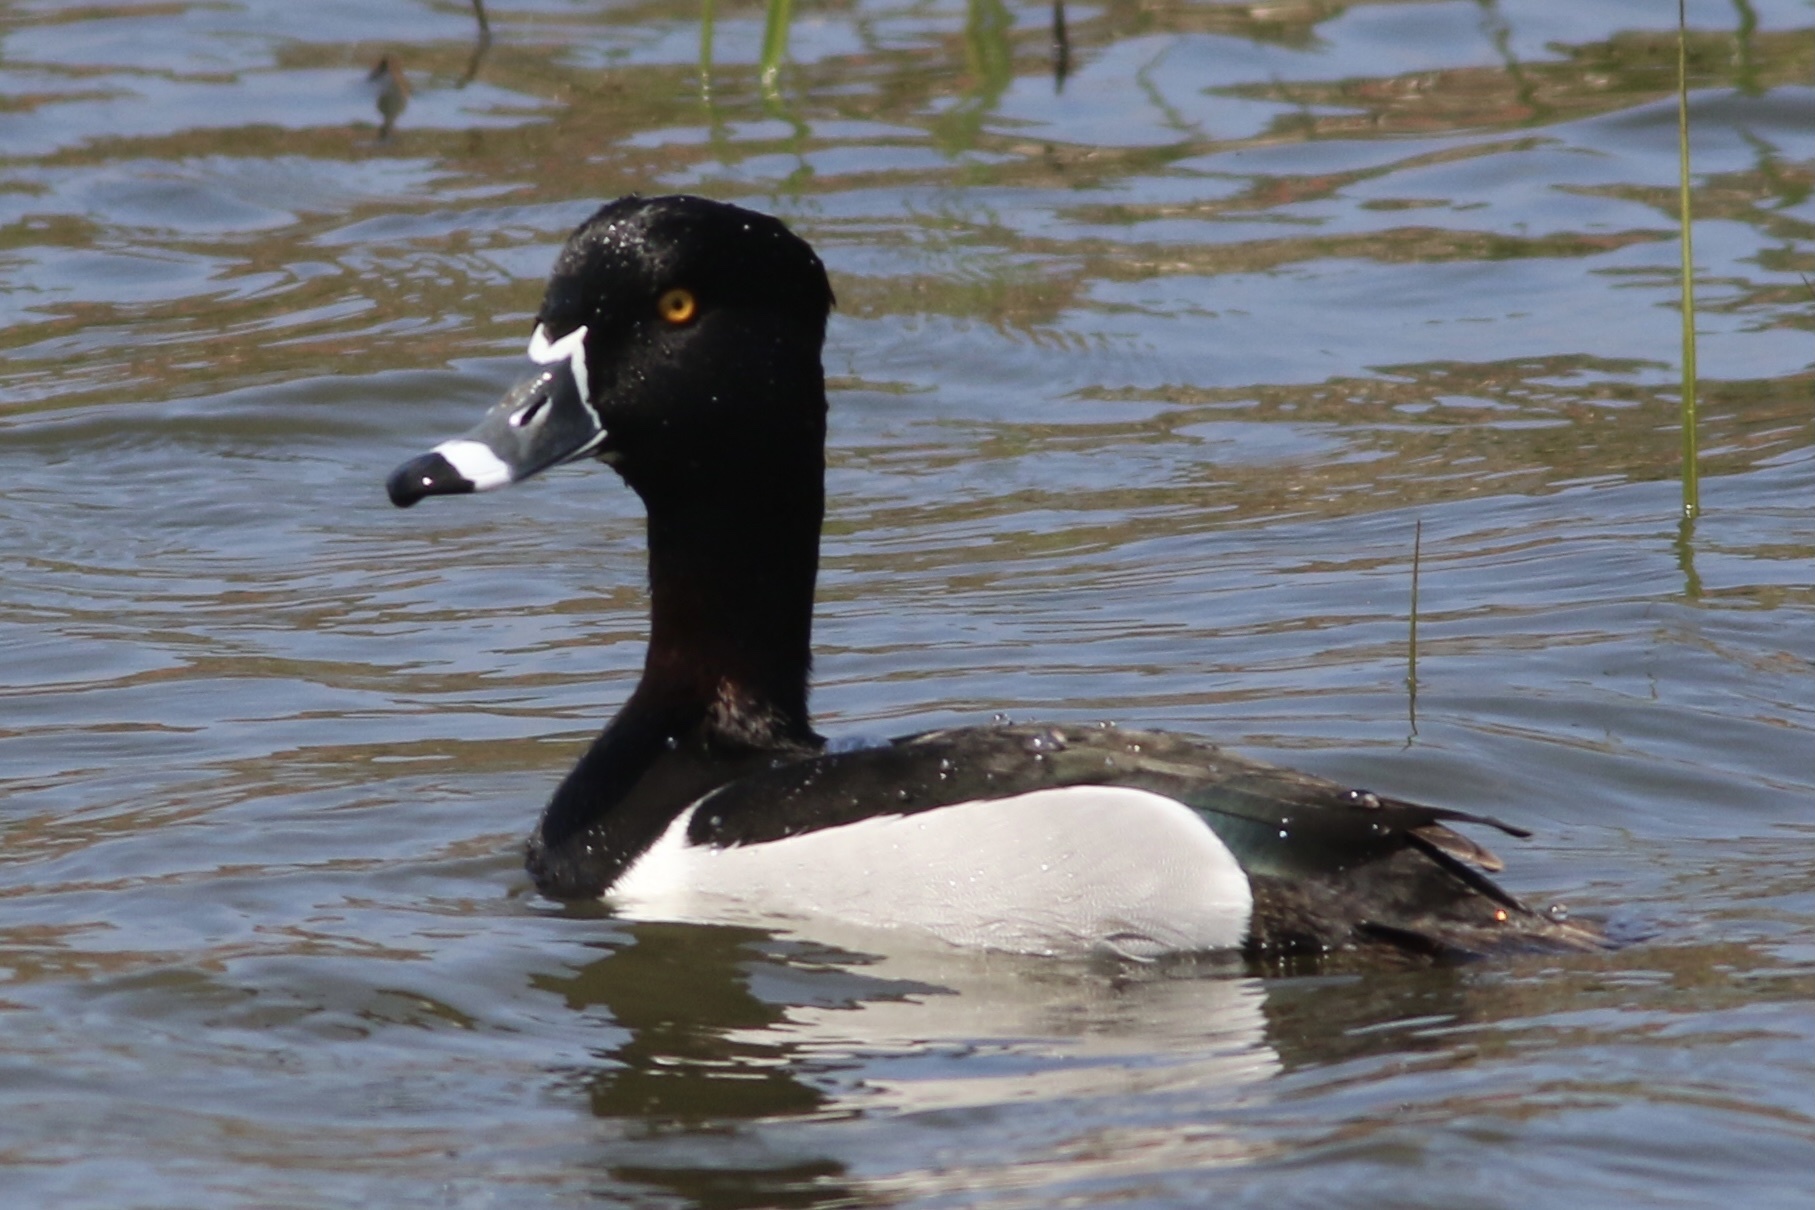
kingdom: Animalia
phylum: Chordata
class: Aves
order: Anseriformes
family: Anatidae
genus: Aythya
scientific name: Aythya collaris
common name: Ring-necked duck
